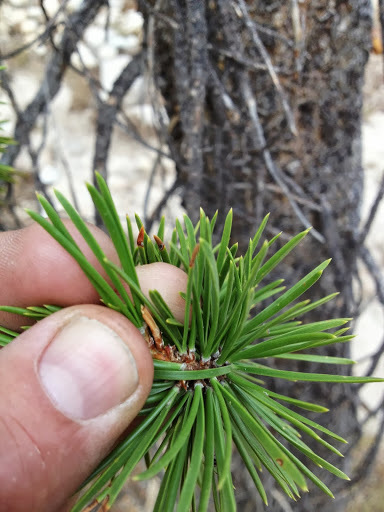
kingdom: Plantae
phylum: Tracheophyta
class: Pinopsida
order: Pinales
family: Pinaceae
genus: Pinus
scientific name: Pinus contorta
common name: Lodgepole pine
